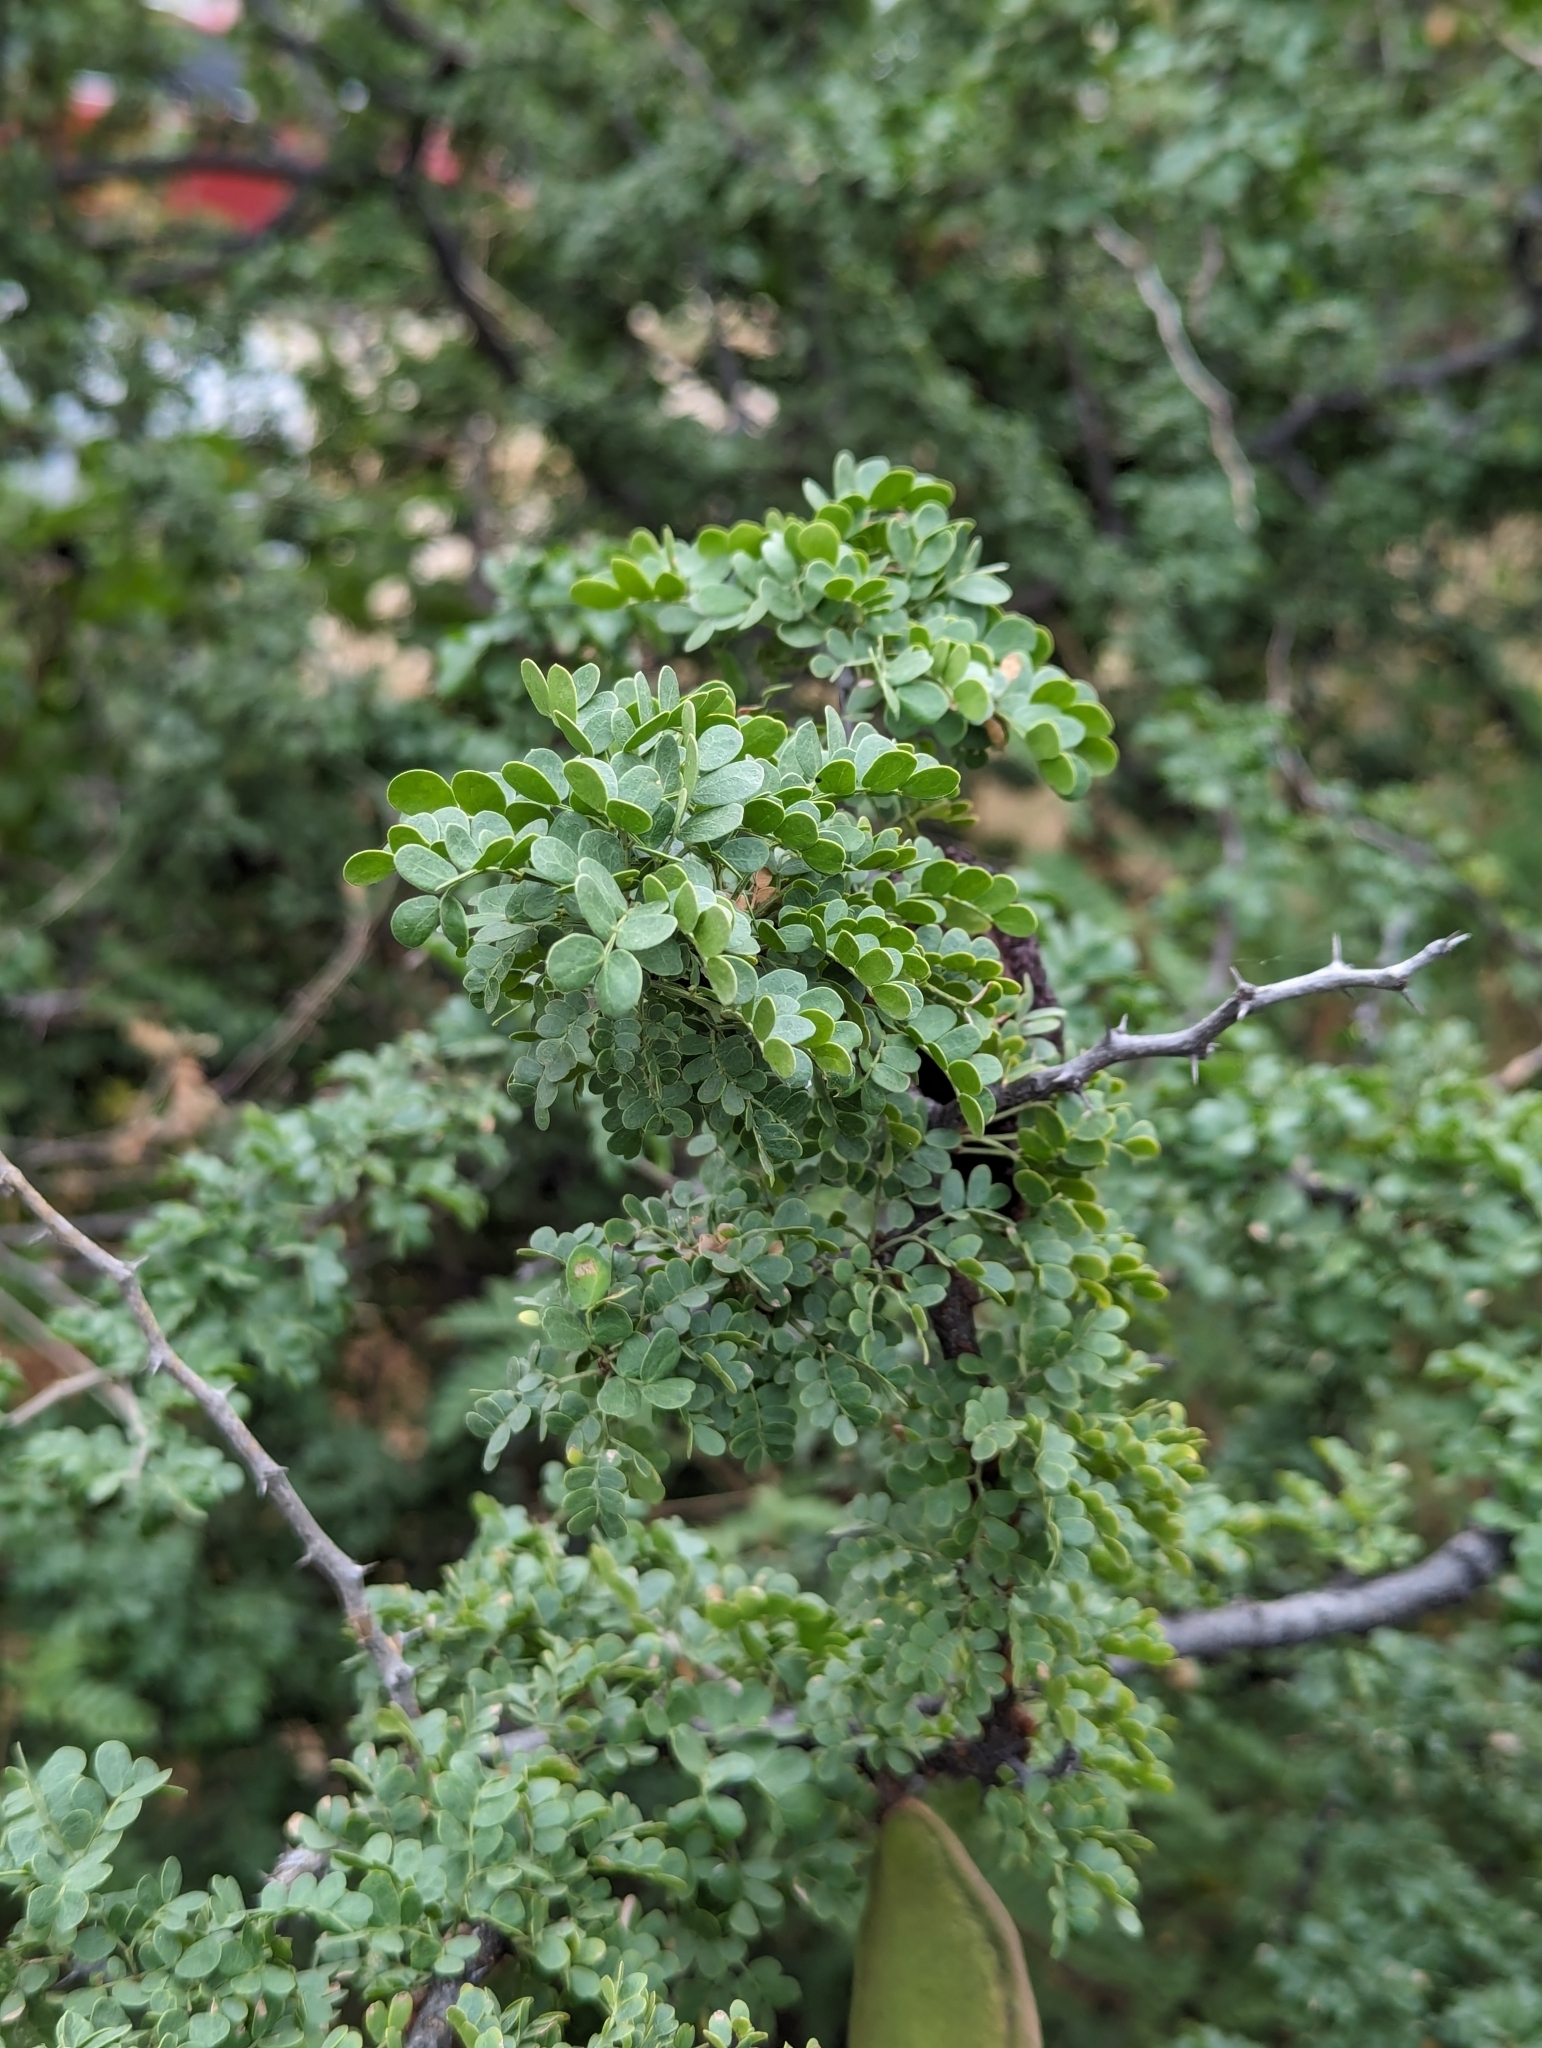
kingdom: Plantae
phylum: Tracheophyta
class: Magnoliopsida
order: Fabales
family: Fabaceae
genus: Ebenopsis
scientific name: Ebenopsis confinis
